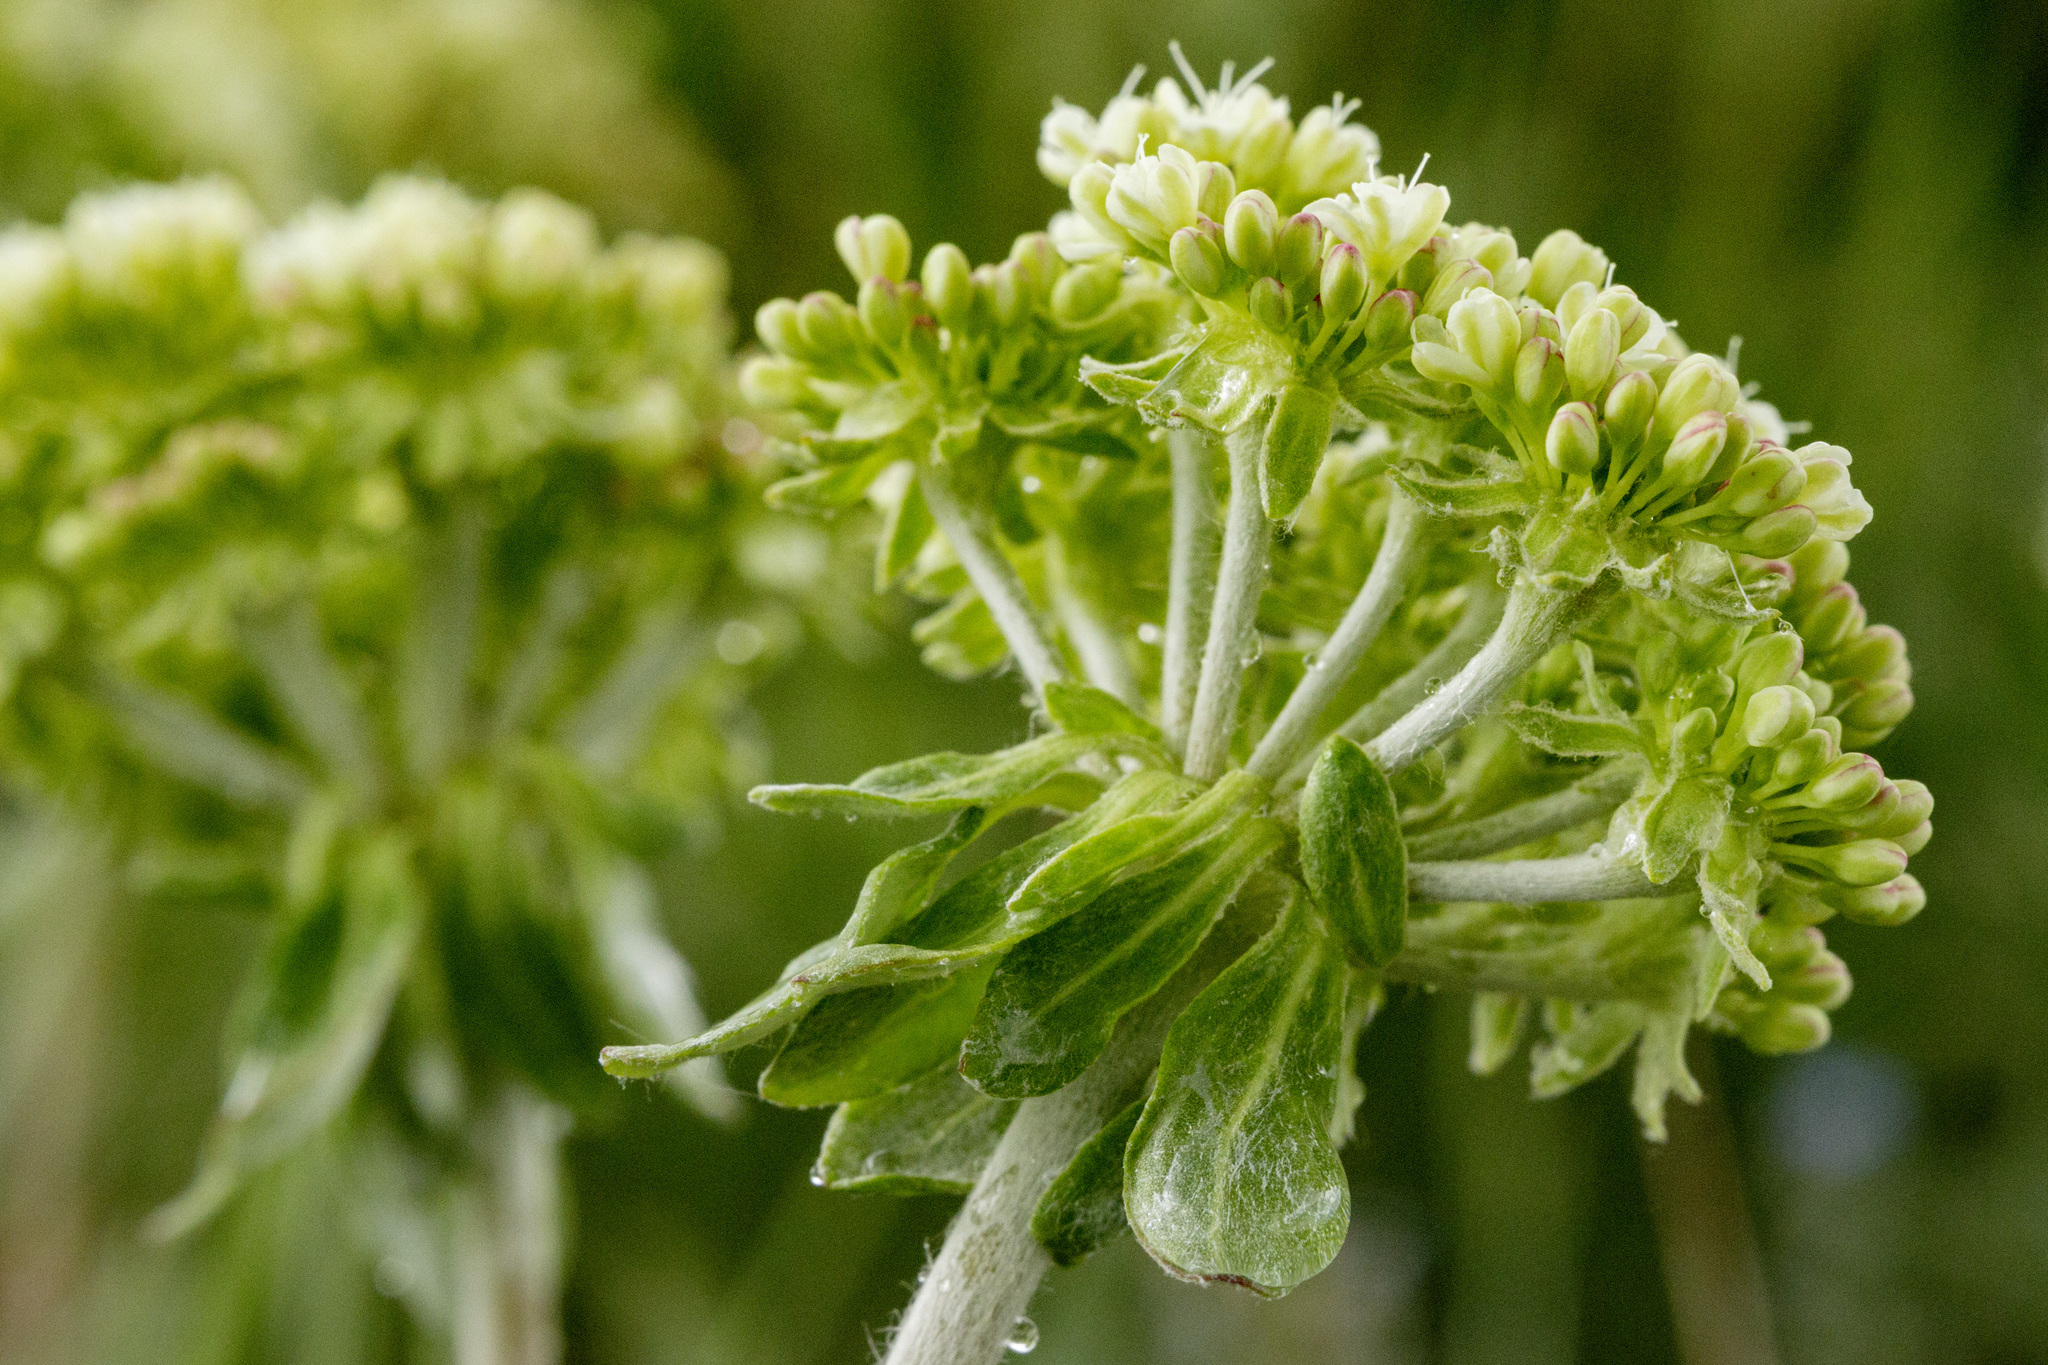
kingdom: Plantae
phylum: Tracheophyta
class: Magnoliopsida
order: Caryophyllales
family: Polygonaceae
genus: Eriogonum
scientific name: Eriogonum umbellatum
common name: Sulfur-buckwheat
